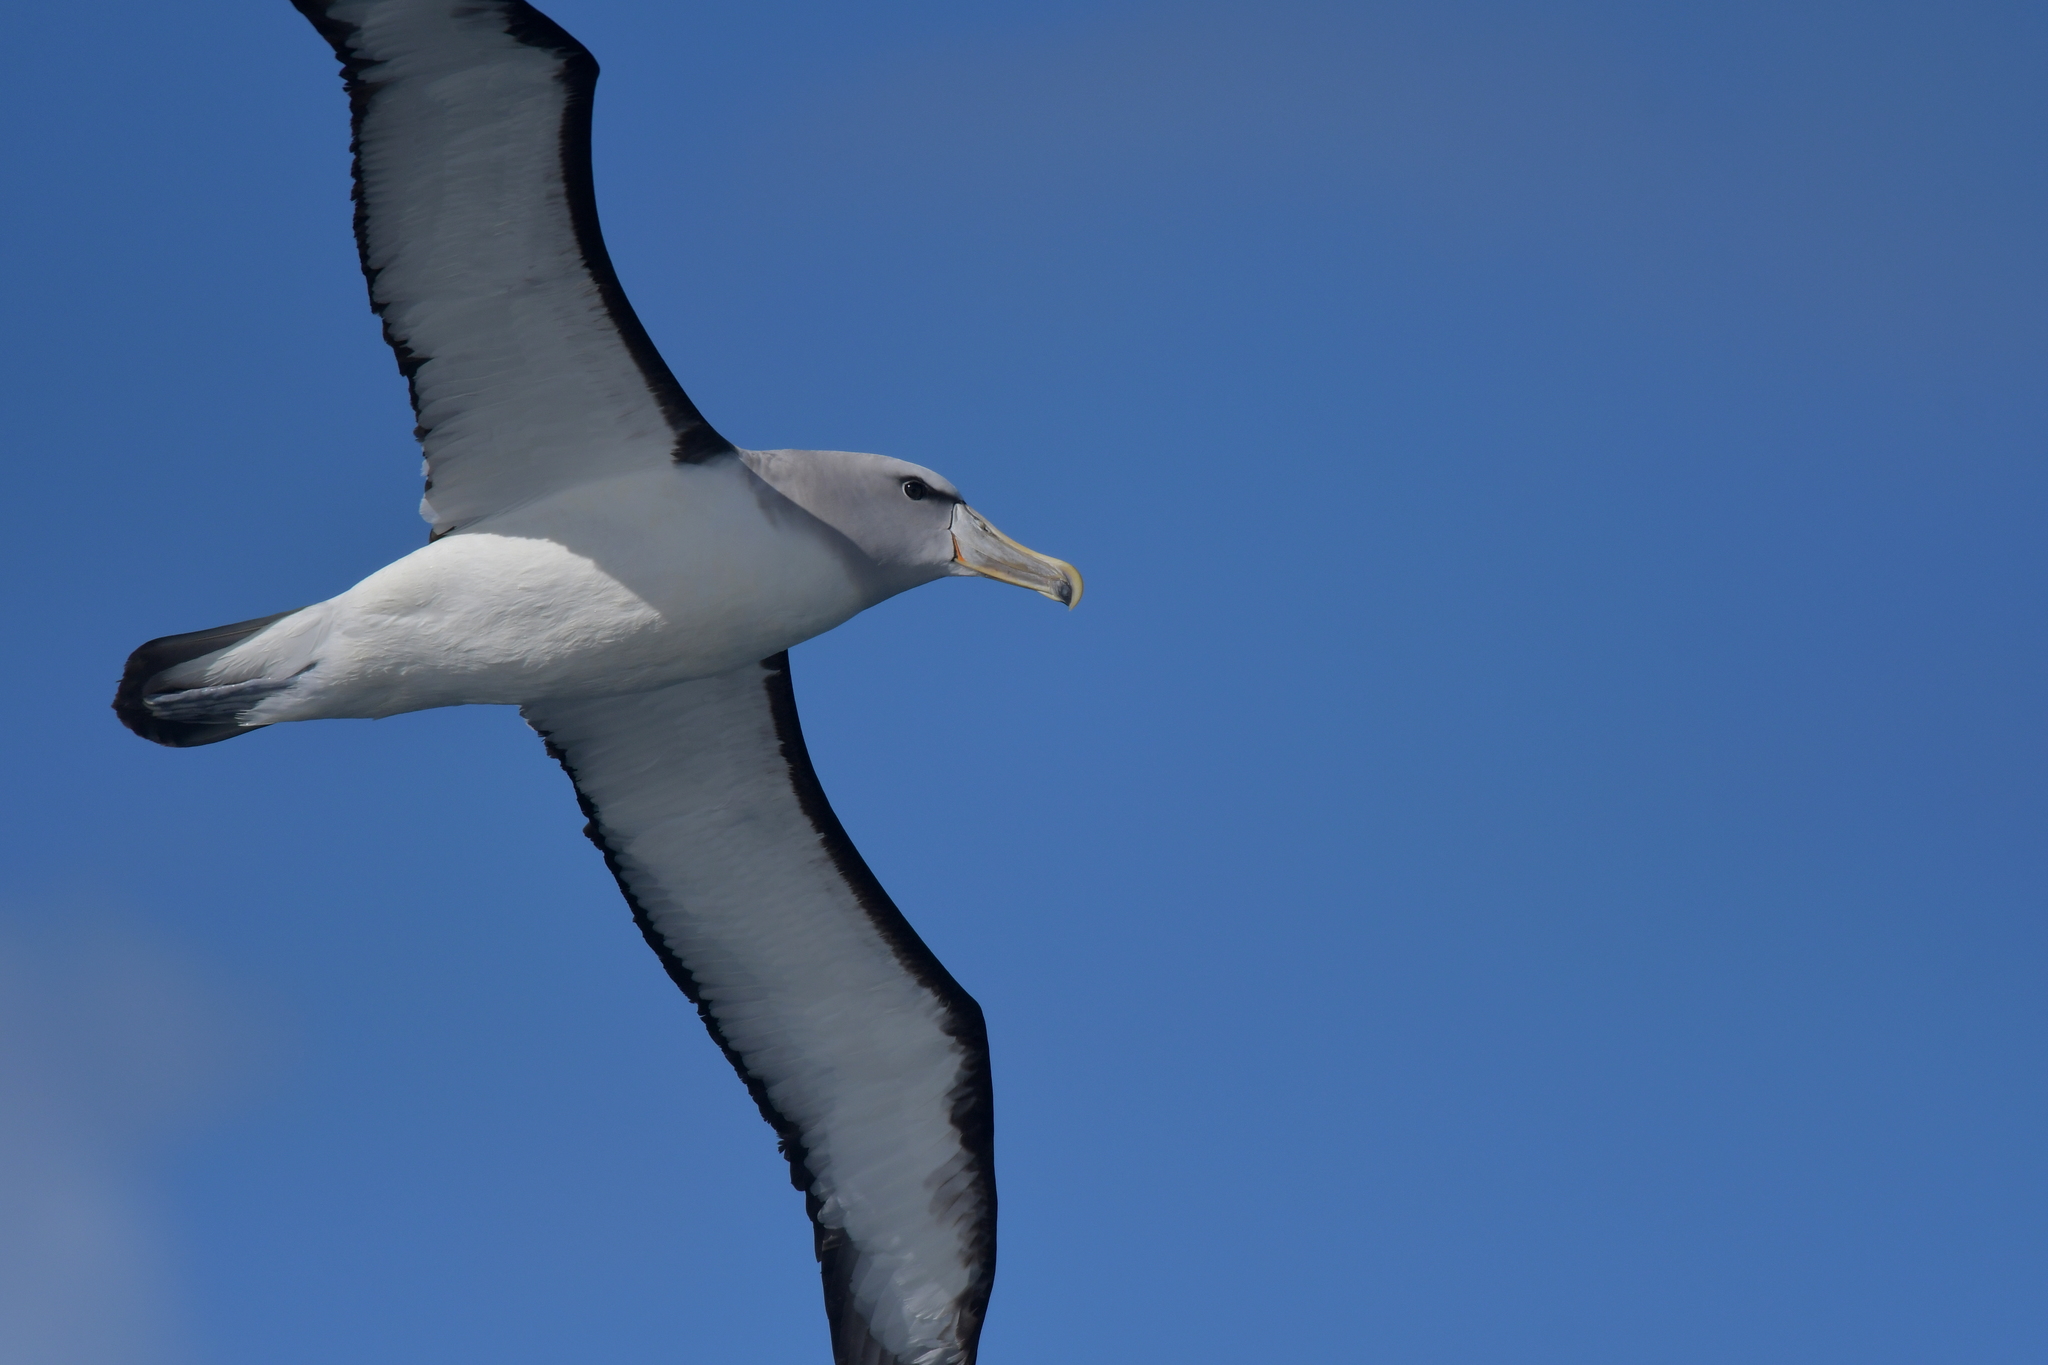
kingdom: Animalia
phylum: Chordata
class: Aves
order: Procellariiformes
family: Diomedeidae
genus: Thalassarche
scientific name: Thalassarche salvini
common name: Salvin's albatross
